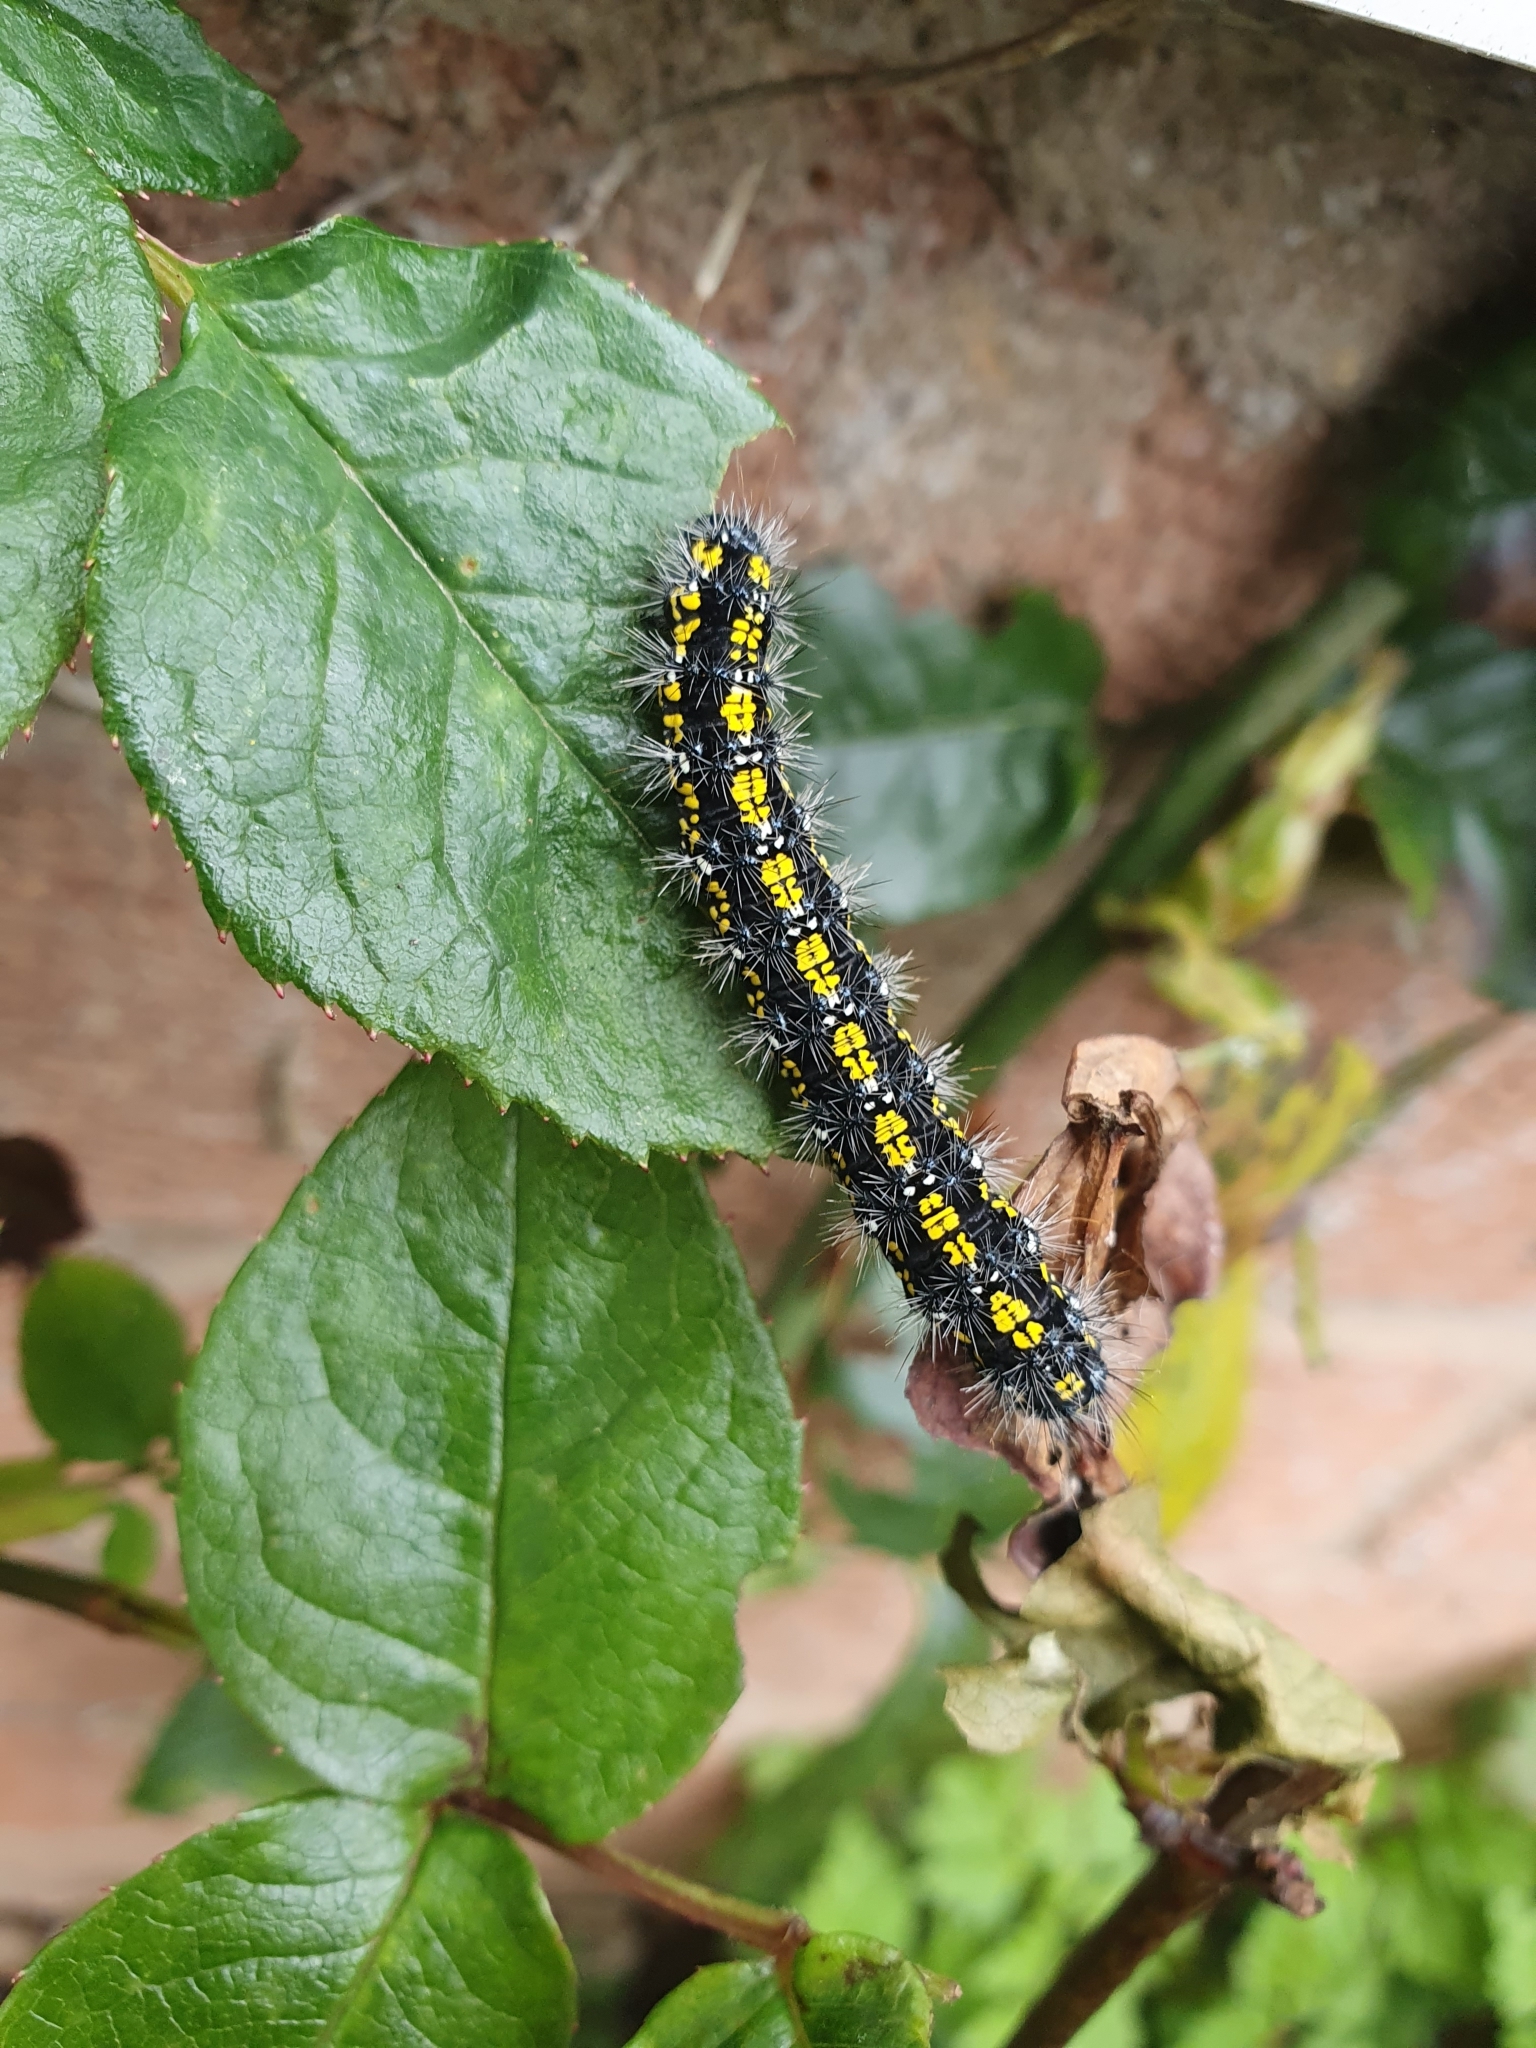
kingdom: Animalia
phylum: Arthropoda
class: Insecta
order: Lepidoptera
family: Erebidae
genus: Callimorpha
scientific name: Callimorpha dominula
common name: Scarlet tiger
